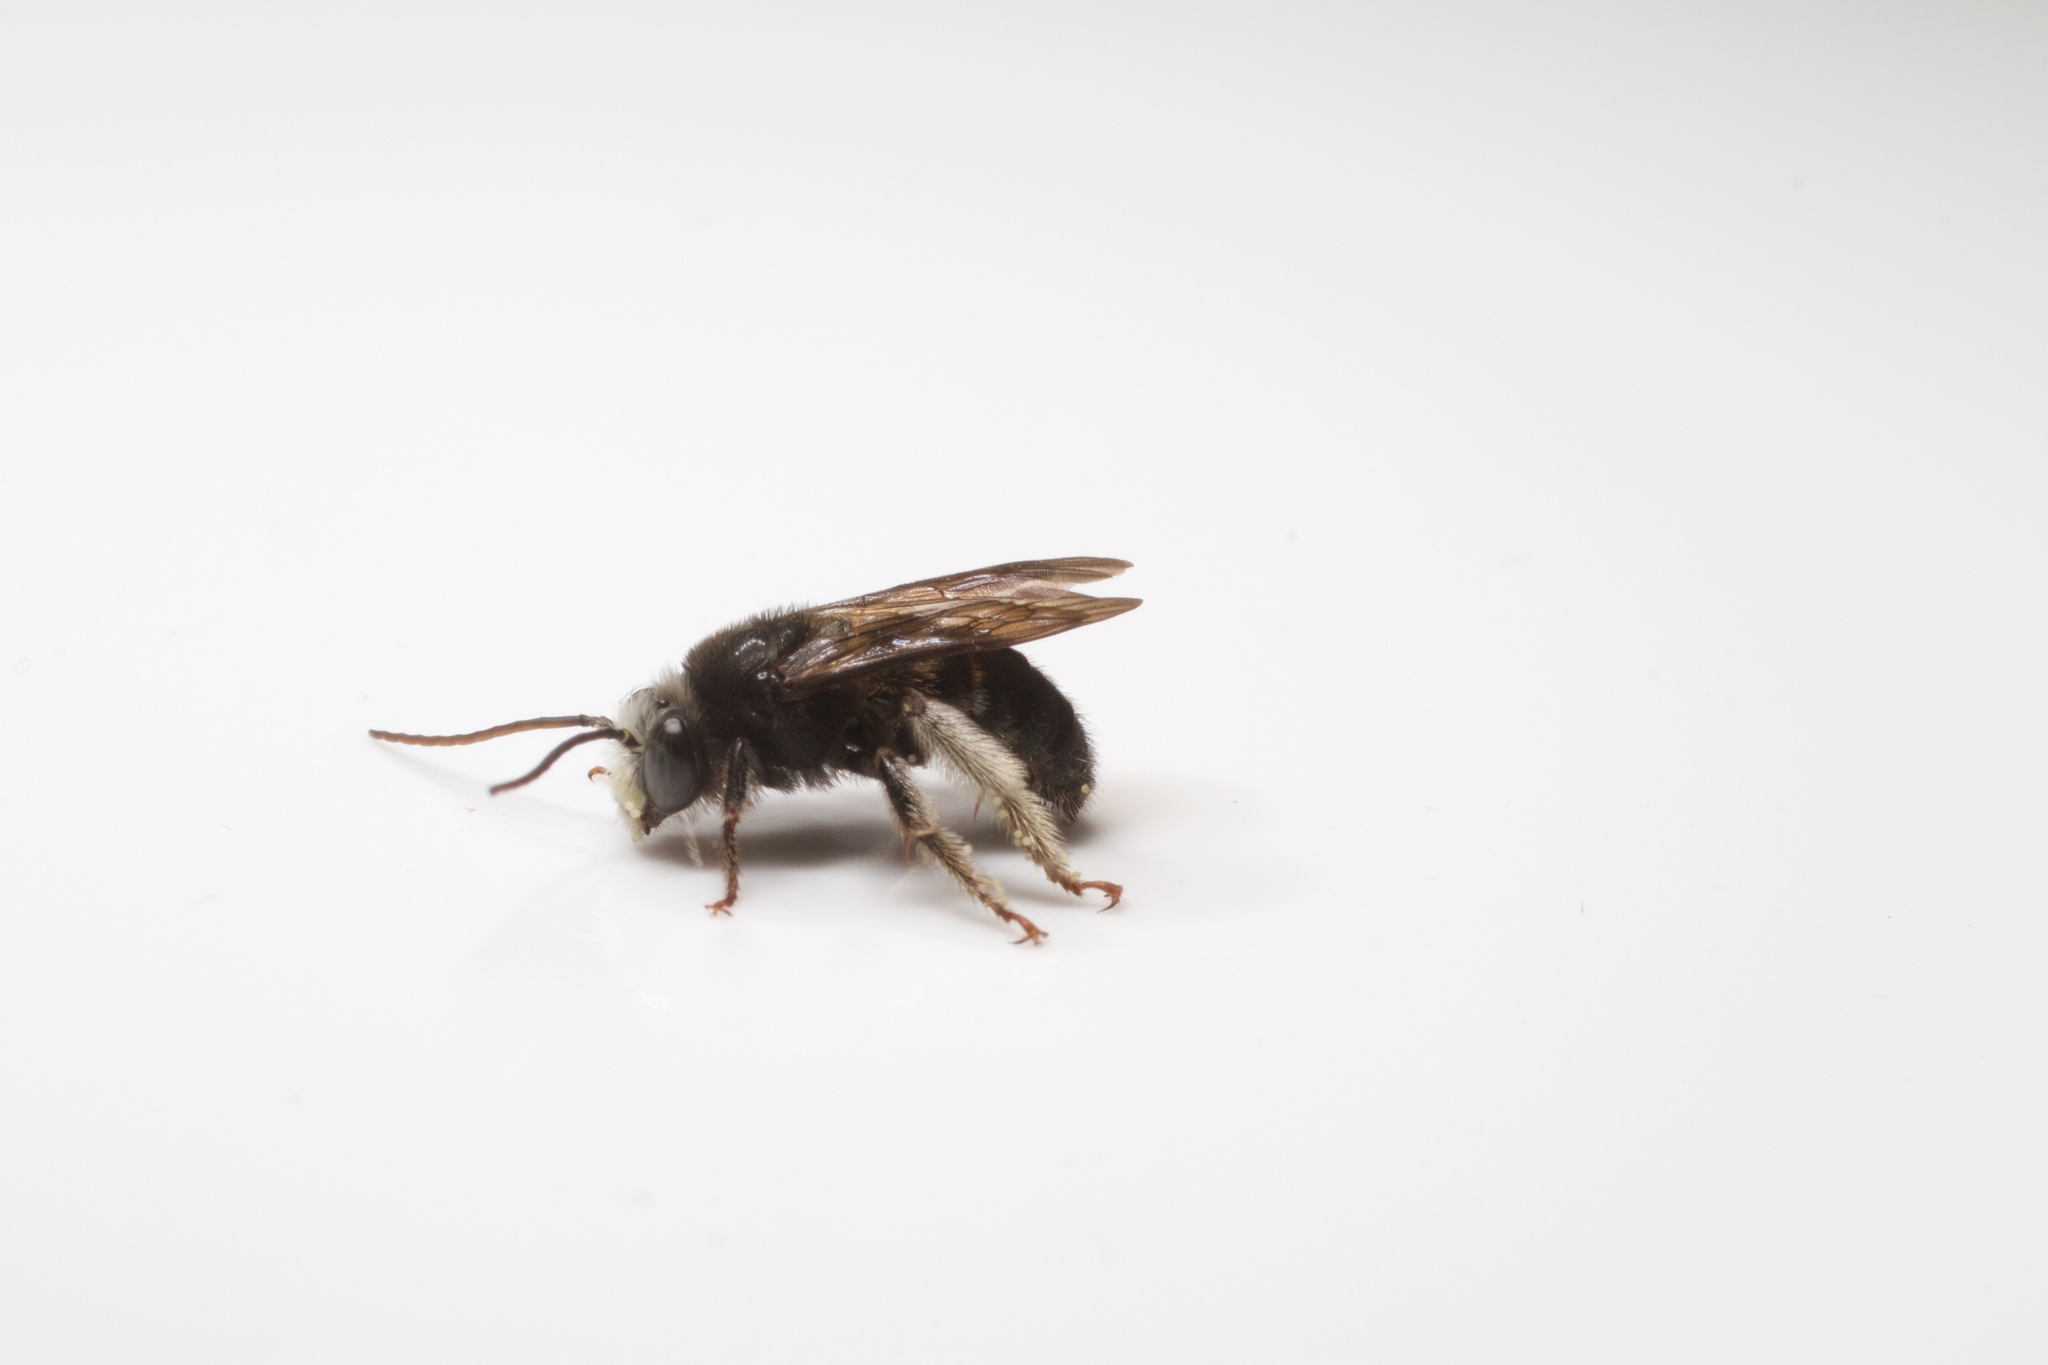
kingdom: Animalia
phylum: Arthropoda
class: Insecta
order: Hymenoptera
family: Apidae
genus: Melissodes
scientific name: Melissodes bimaculatus
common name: Two-spotted long-horned bee
